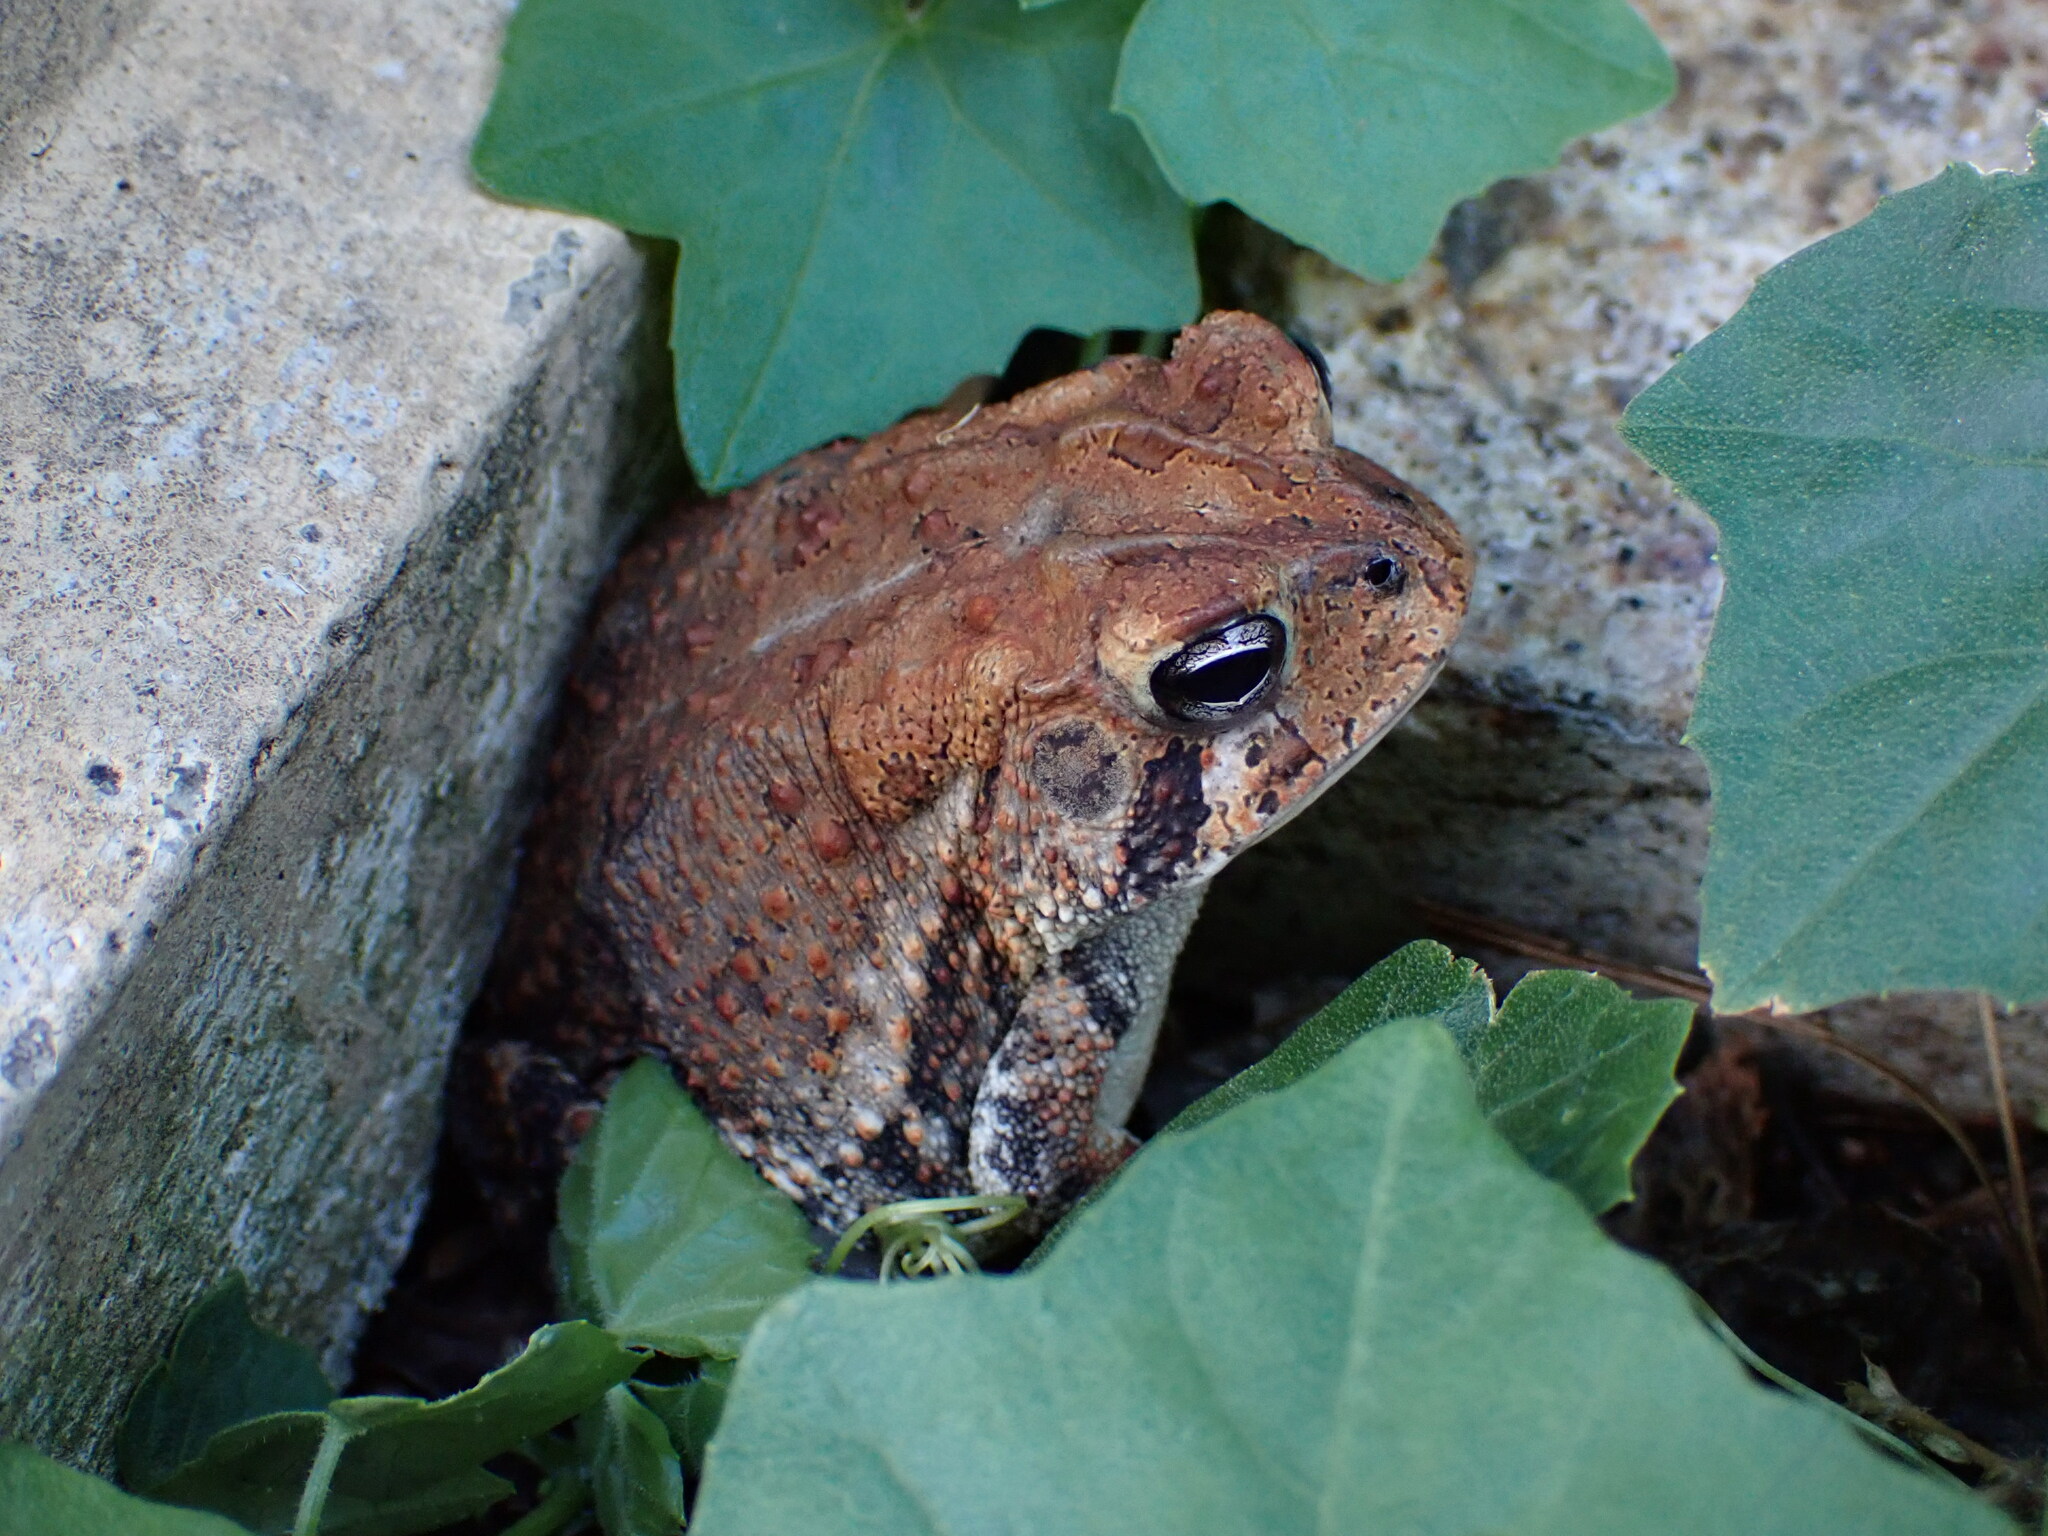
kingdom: Animalia
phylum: Chordata
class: Amphibia
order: Anura
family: Bufonidae
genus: Anaxyrus
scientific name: Anaxyrus terrestris
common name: Southern toad
